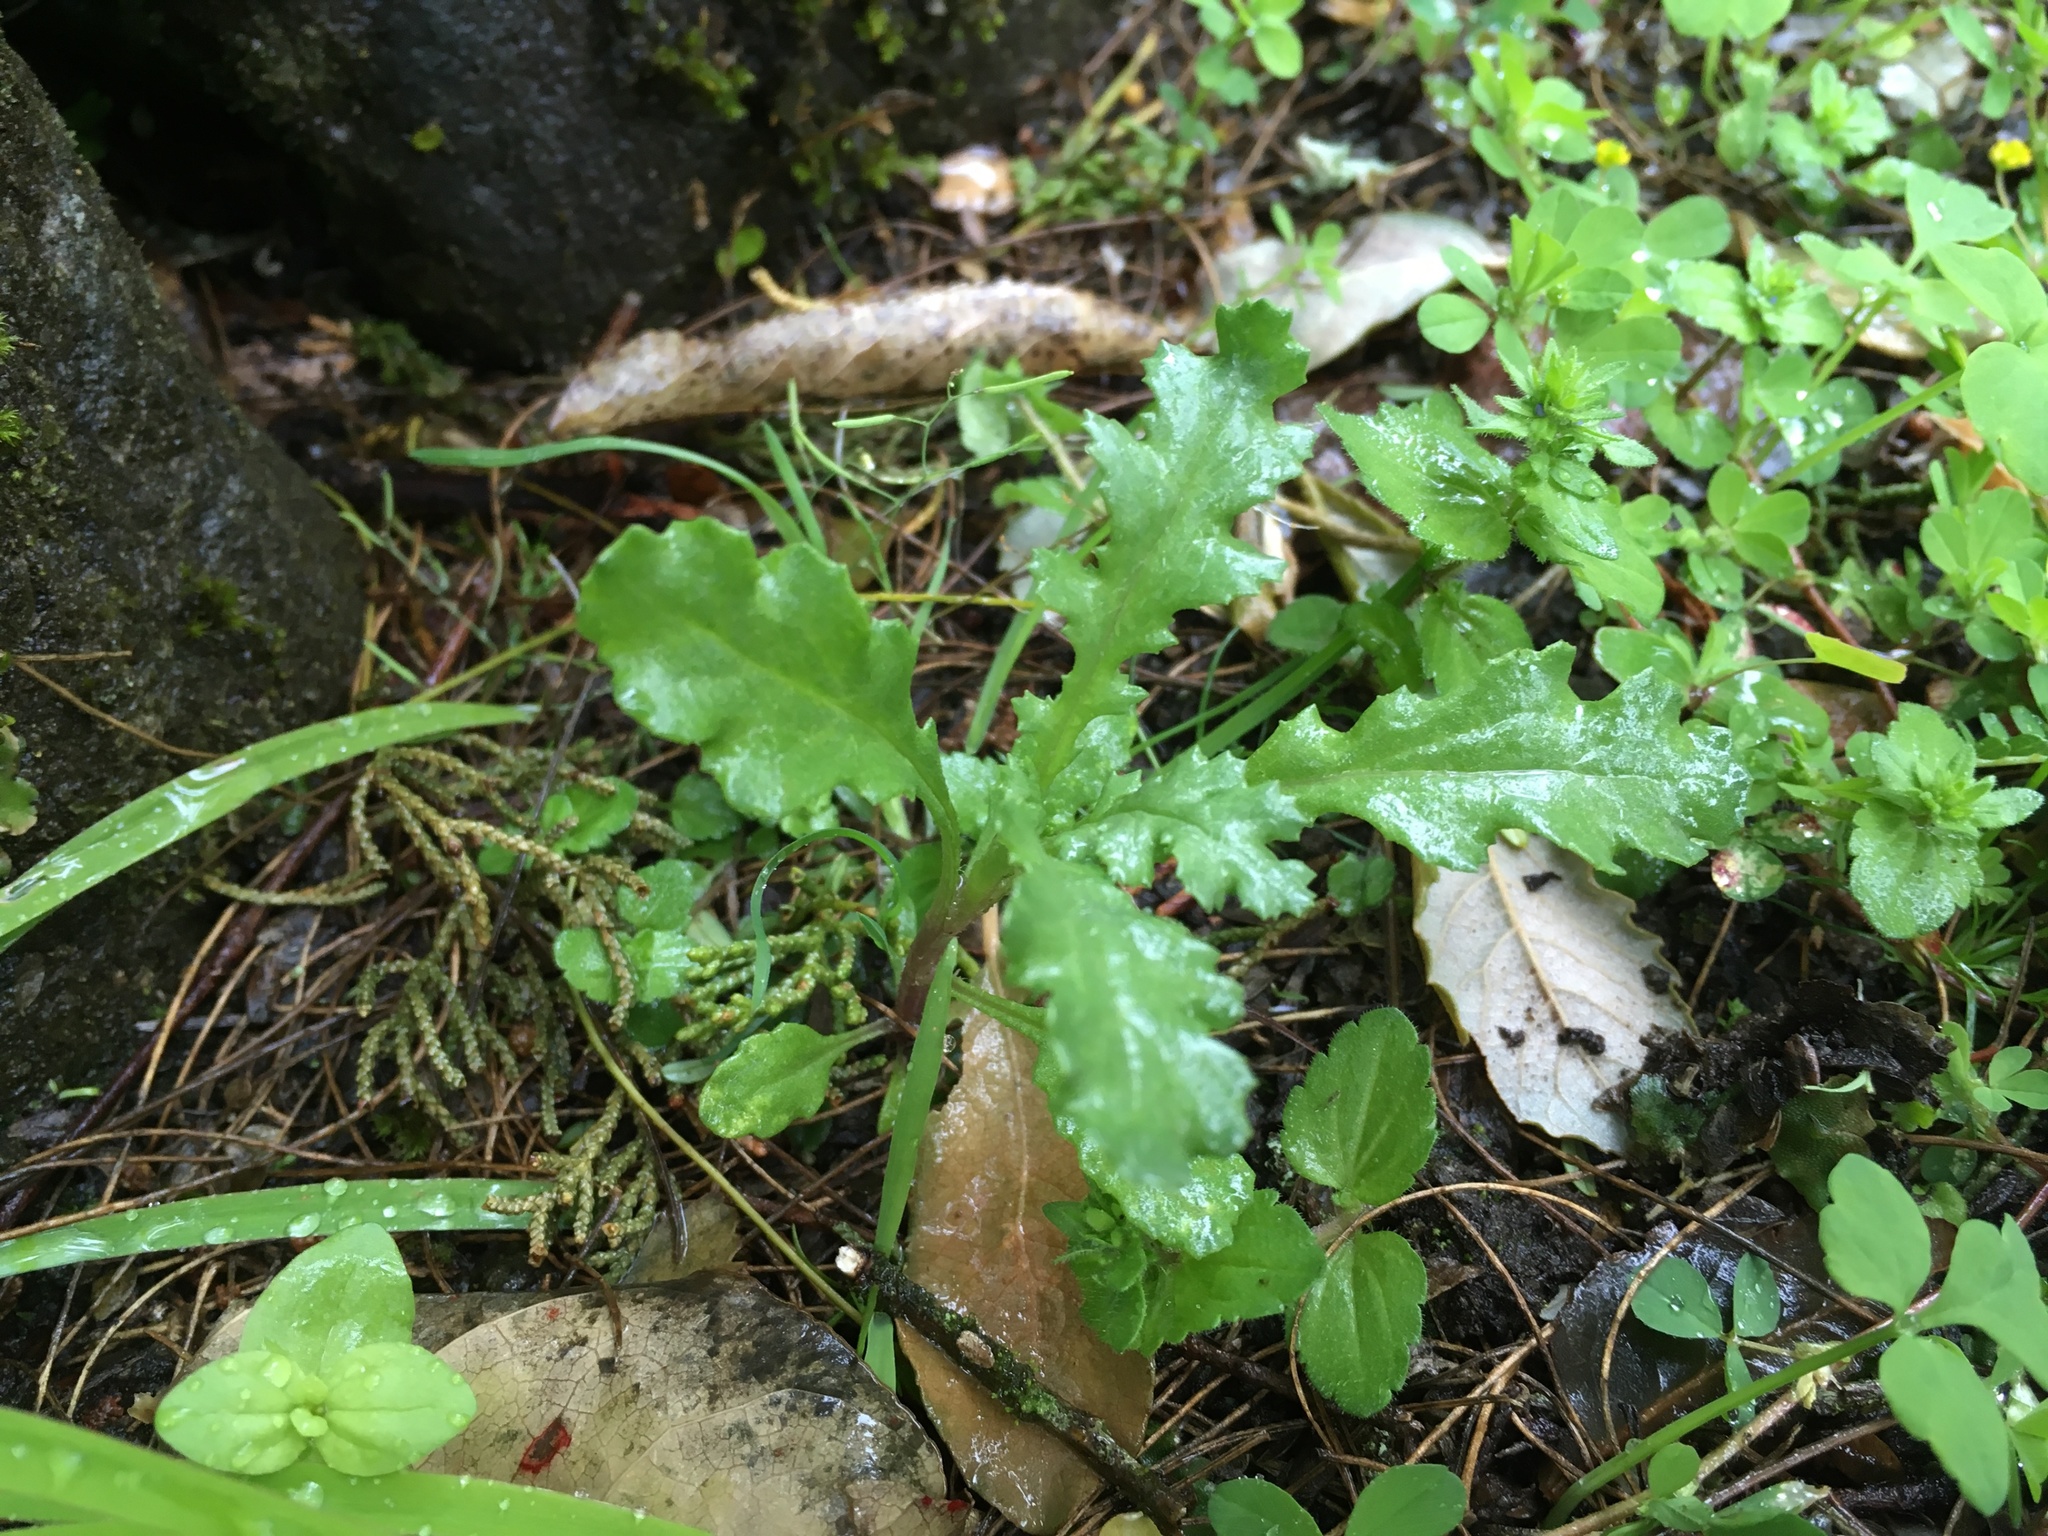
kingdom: Plantae
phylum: Tracheophyta
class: Magnoliopsida
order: Asterales
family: Asteraceae
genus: Senecio
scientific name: Senecio vulgaris
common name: Old-man-in-the-spring
